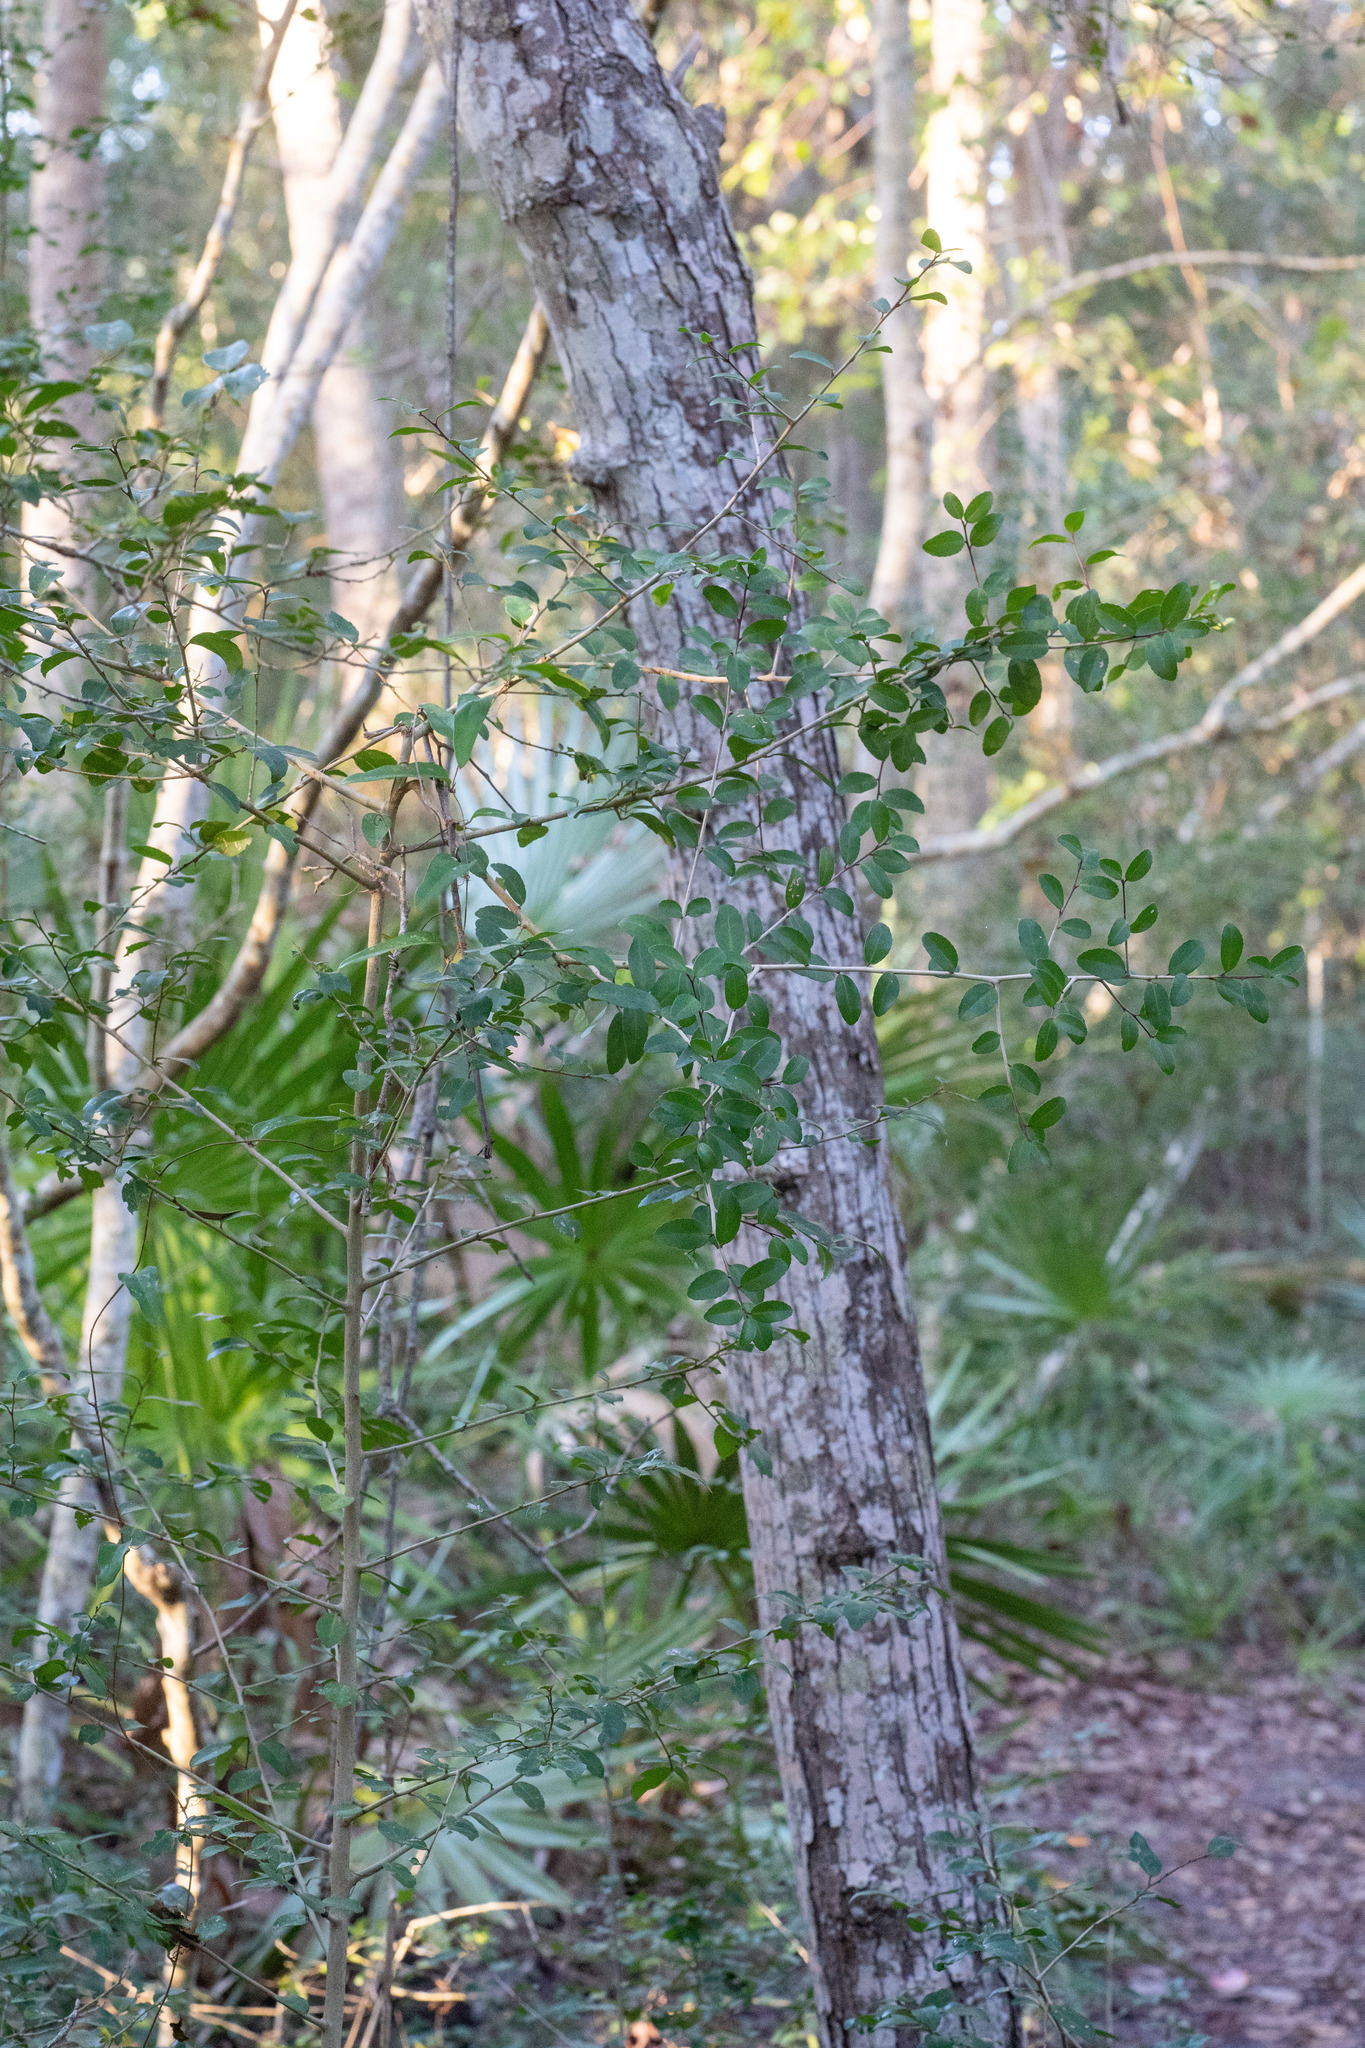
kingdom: Plantae
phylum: Tracheophyta
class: Magnoliopsida
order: Aquifoliales
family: Aquifoliaceae
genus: Ilex
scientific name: Ilex vomitoria
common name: Yaupon holly
